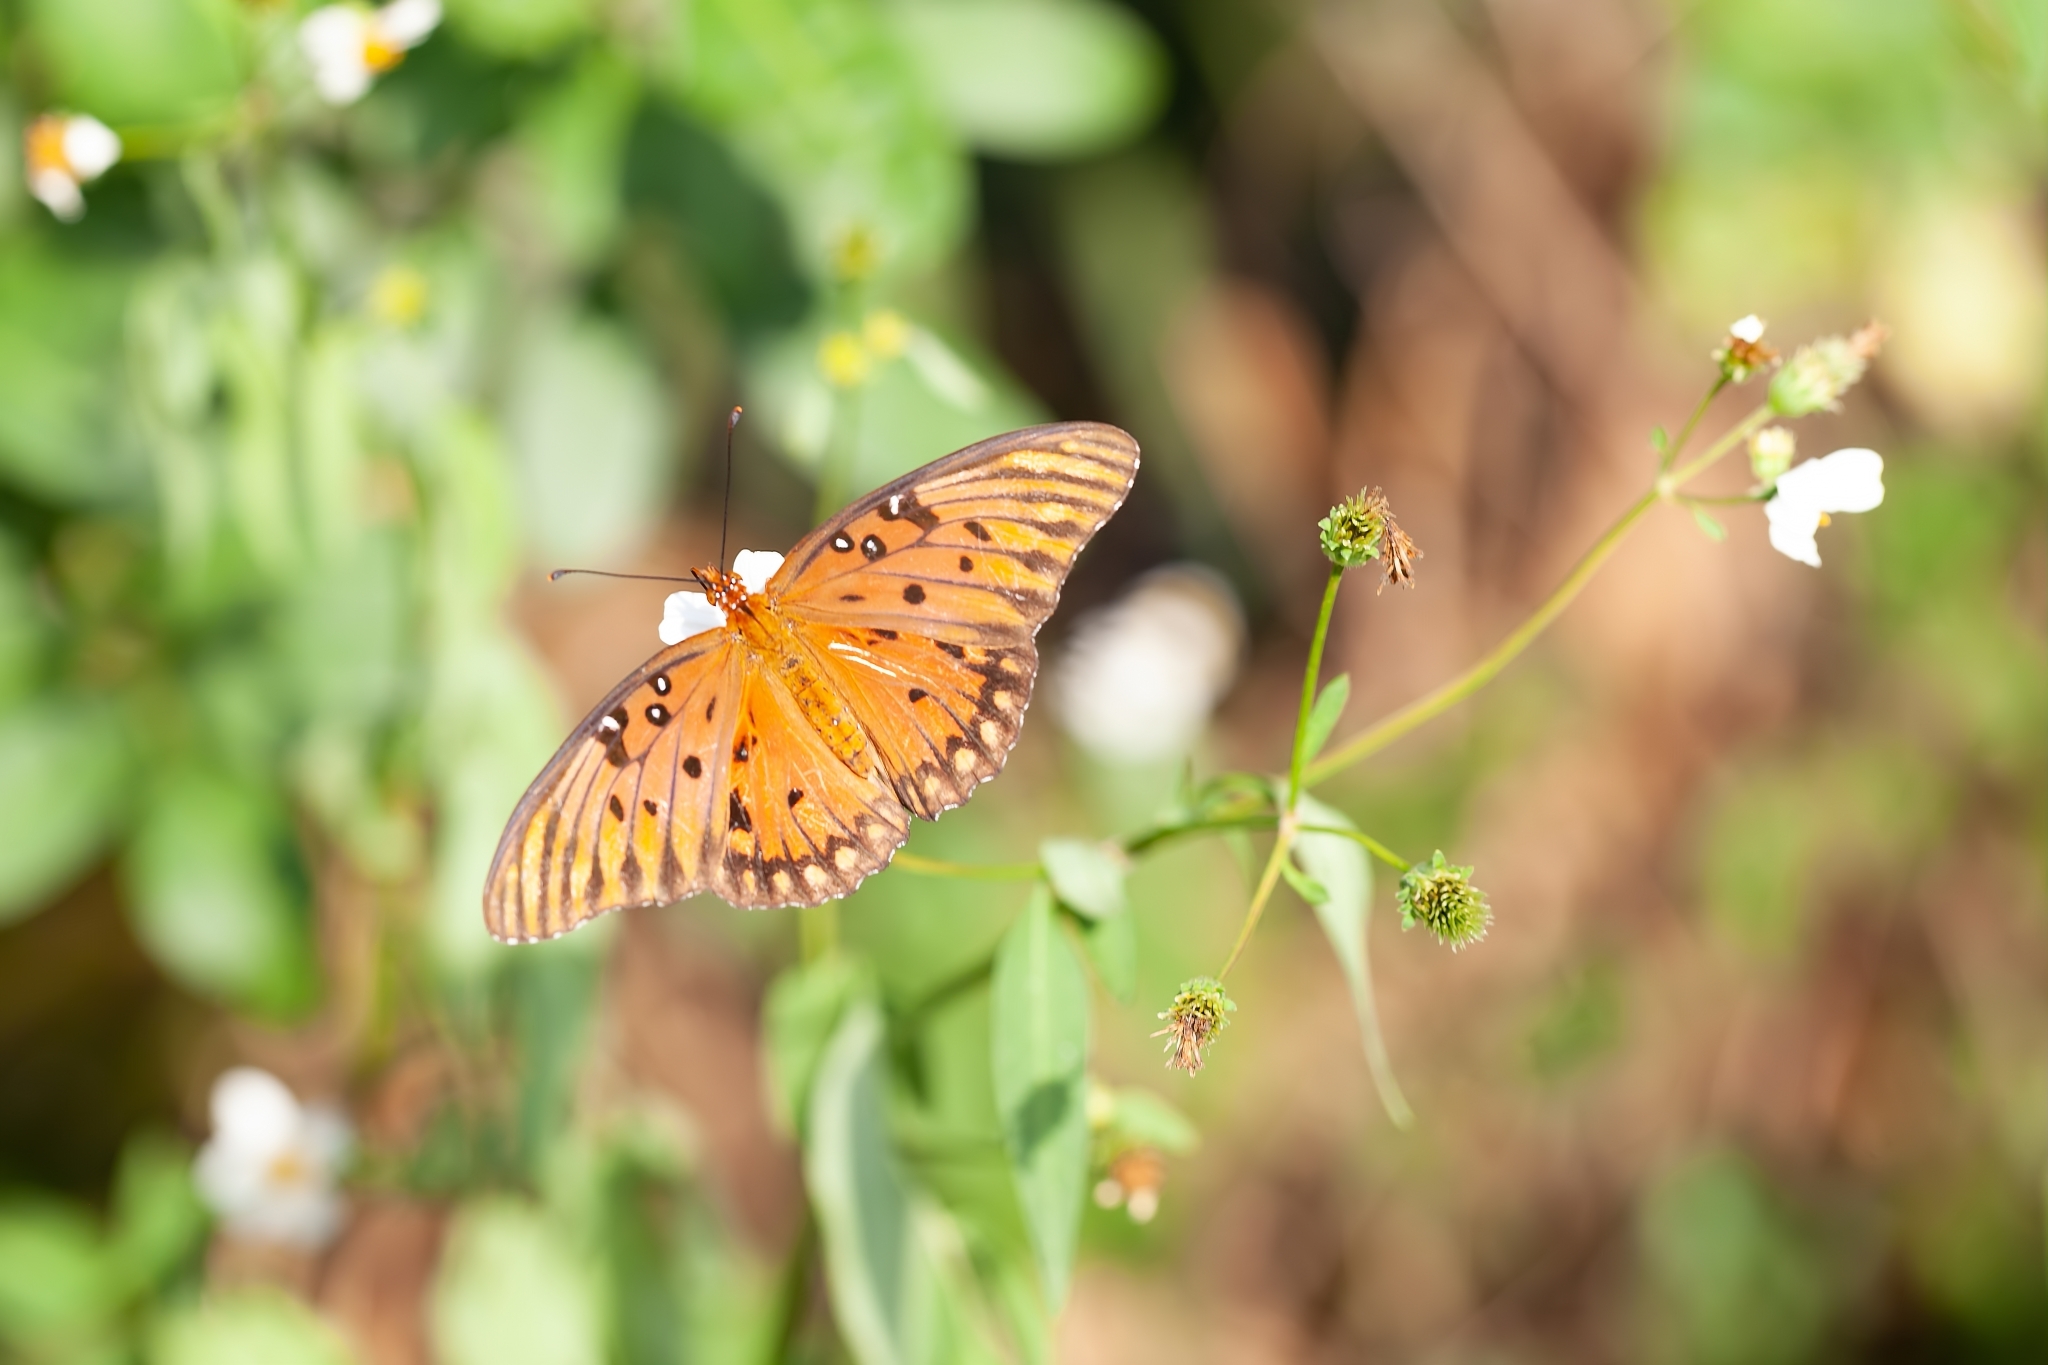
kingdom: Animalia
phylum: Arthropoda
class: Insecta
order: Lepidoptera
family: Nymphalidae
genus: Dione
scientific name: Dione vanillae
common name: Gulf fritillary
